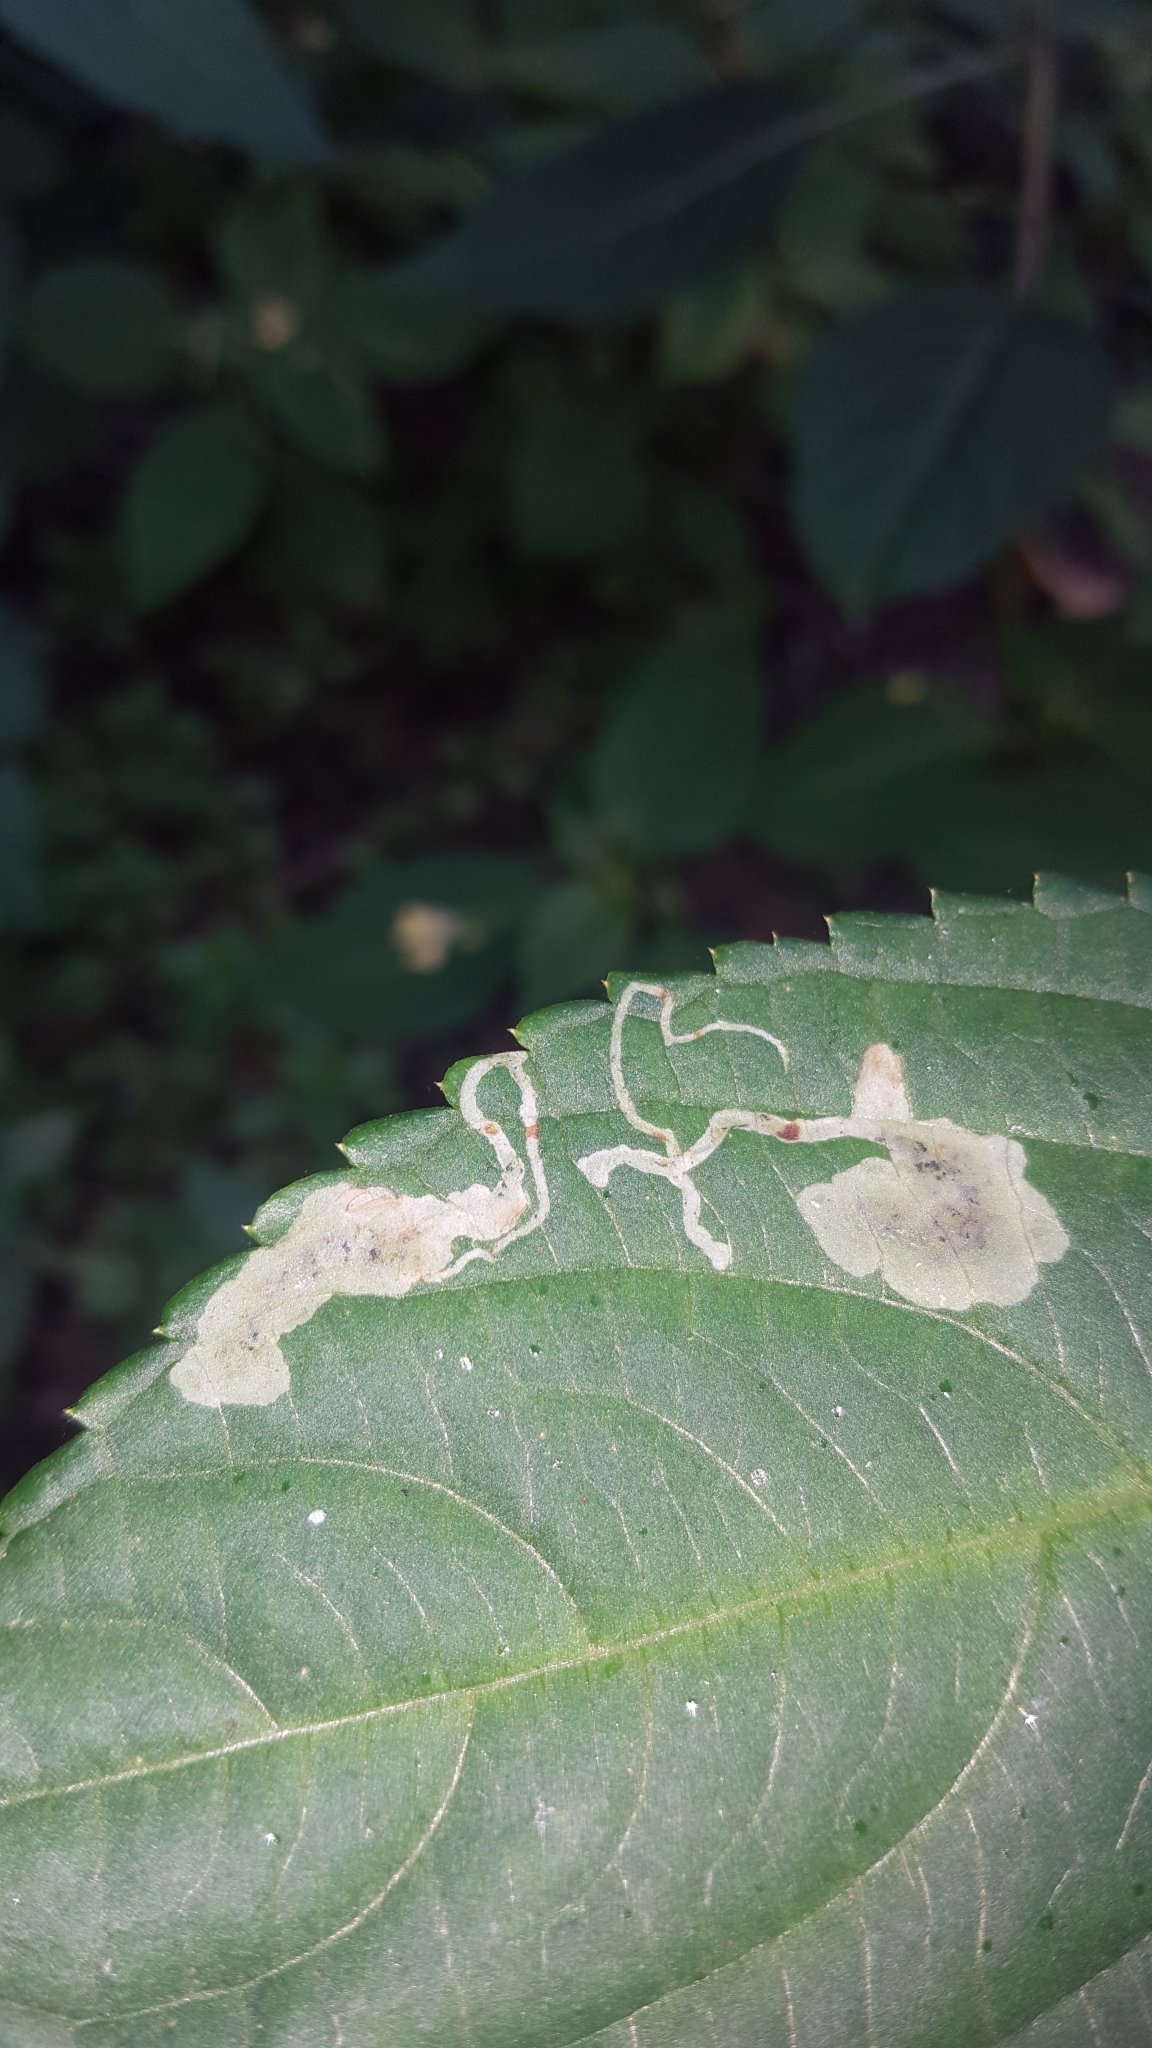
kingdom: Animalia
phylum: Arthropoda
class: Insecta
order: Diptera
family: Agromyzidae
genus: Phytoliriomyza
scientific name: Phytoliriomyza melampyga
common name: Jewelweed leaf-miner fly
